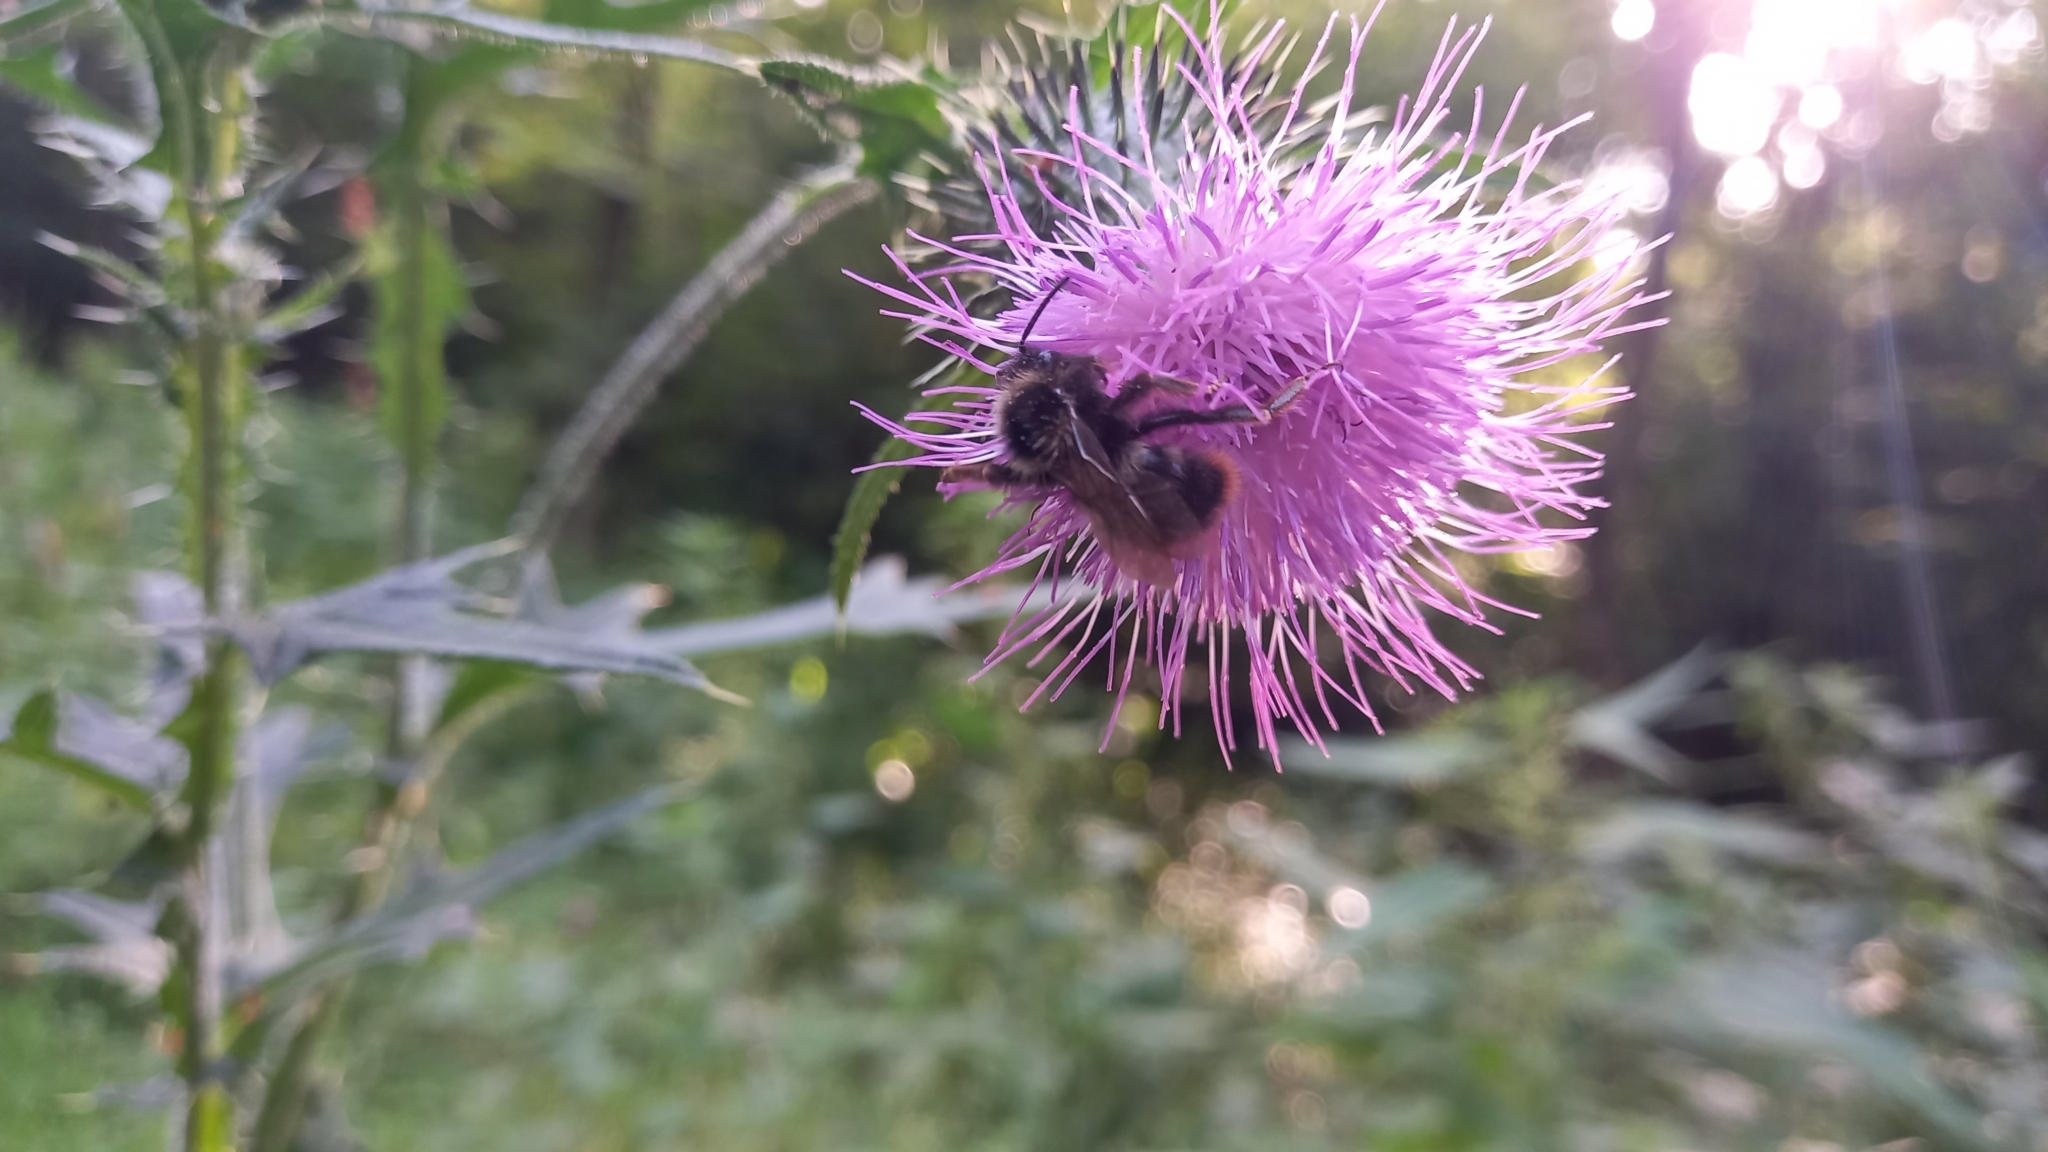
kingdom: Animalia
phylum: Arthropoda
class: Insecta
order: Hymenoptera
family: Apidae
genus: Bombus
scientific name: Bombus rupestris
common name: Hill cuckoo-bee
